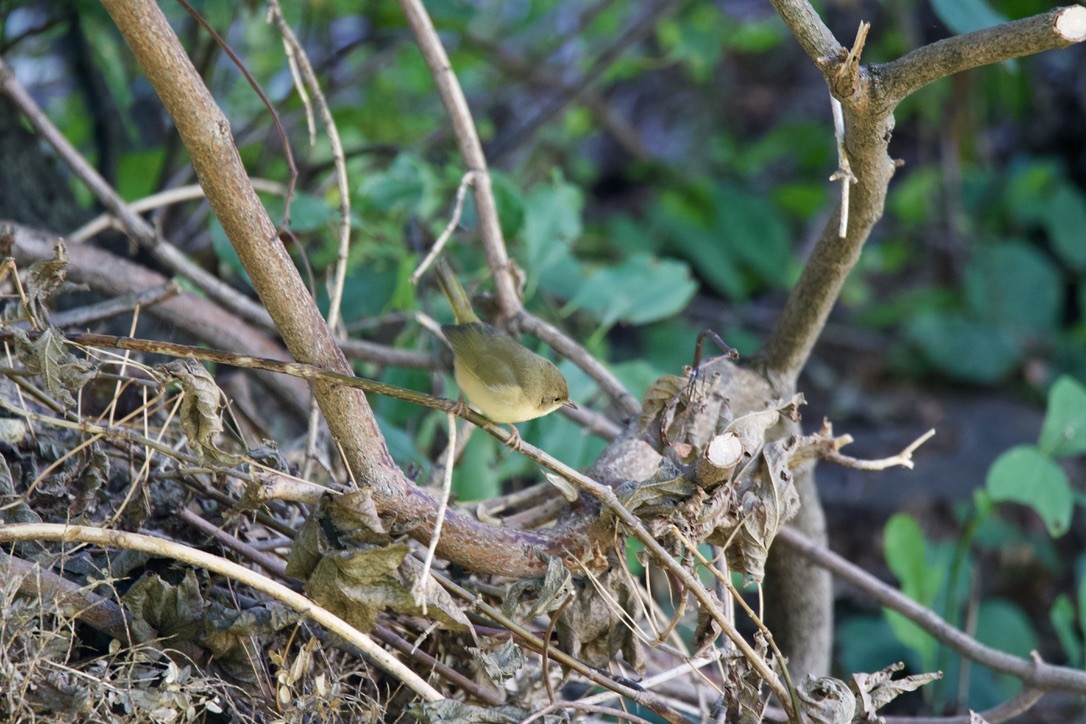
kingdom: Animalia
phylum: Chordata
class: Aves
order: Passeriformes
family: Parulidae
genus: Geothlypis
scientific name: Geothlypis trichas
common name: Common yellowthroat
